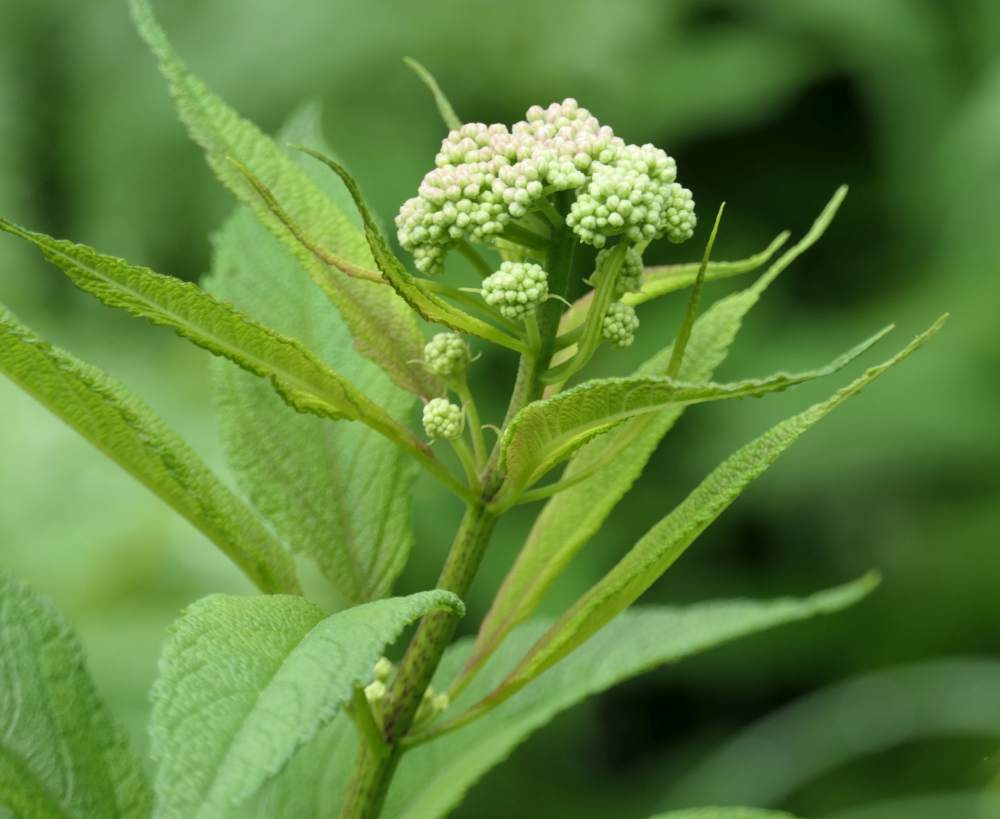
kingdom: Plantae
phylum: Tracheophyta
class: Magnoliopsida
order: Asterales
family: Asteraceae
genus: Eutrochium
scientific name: Eutrochium maculatum
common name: Spotted joe pye weed
